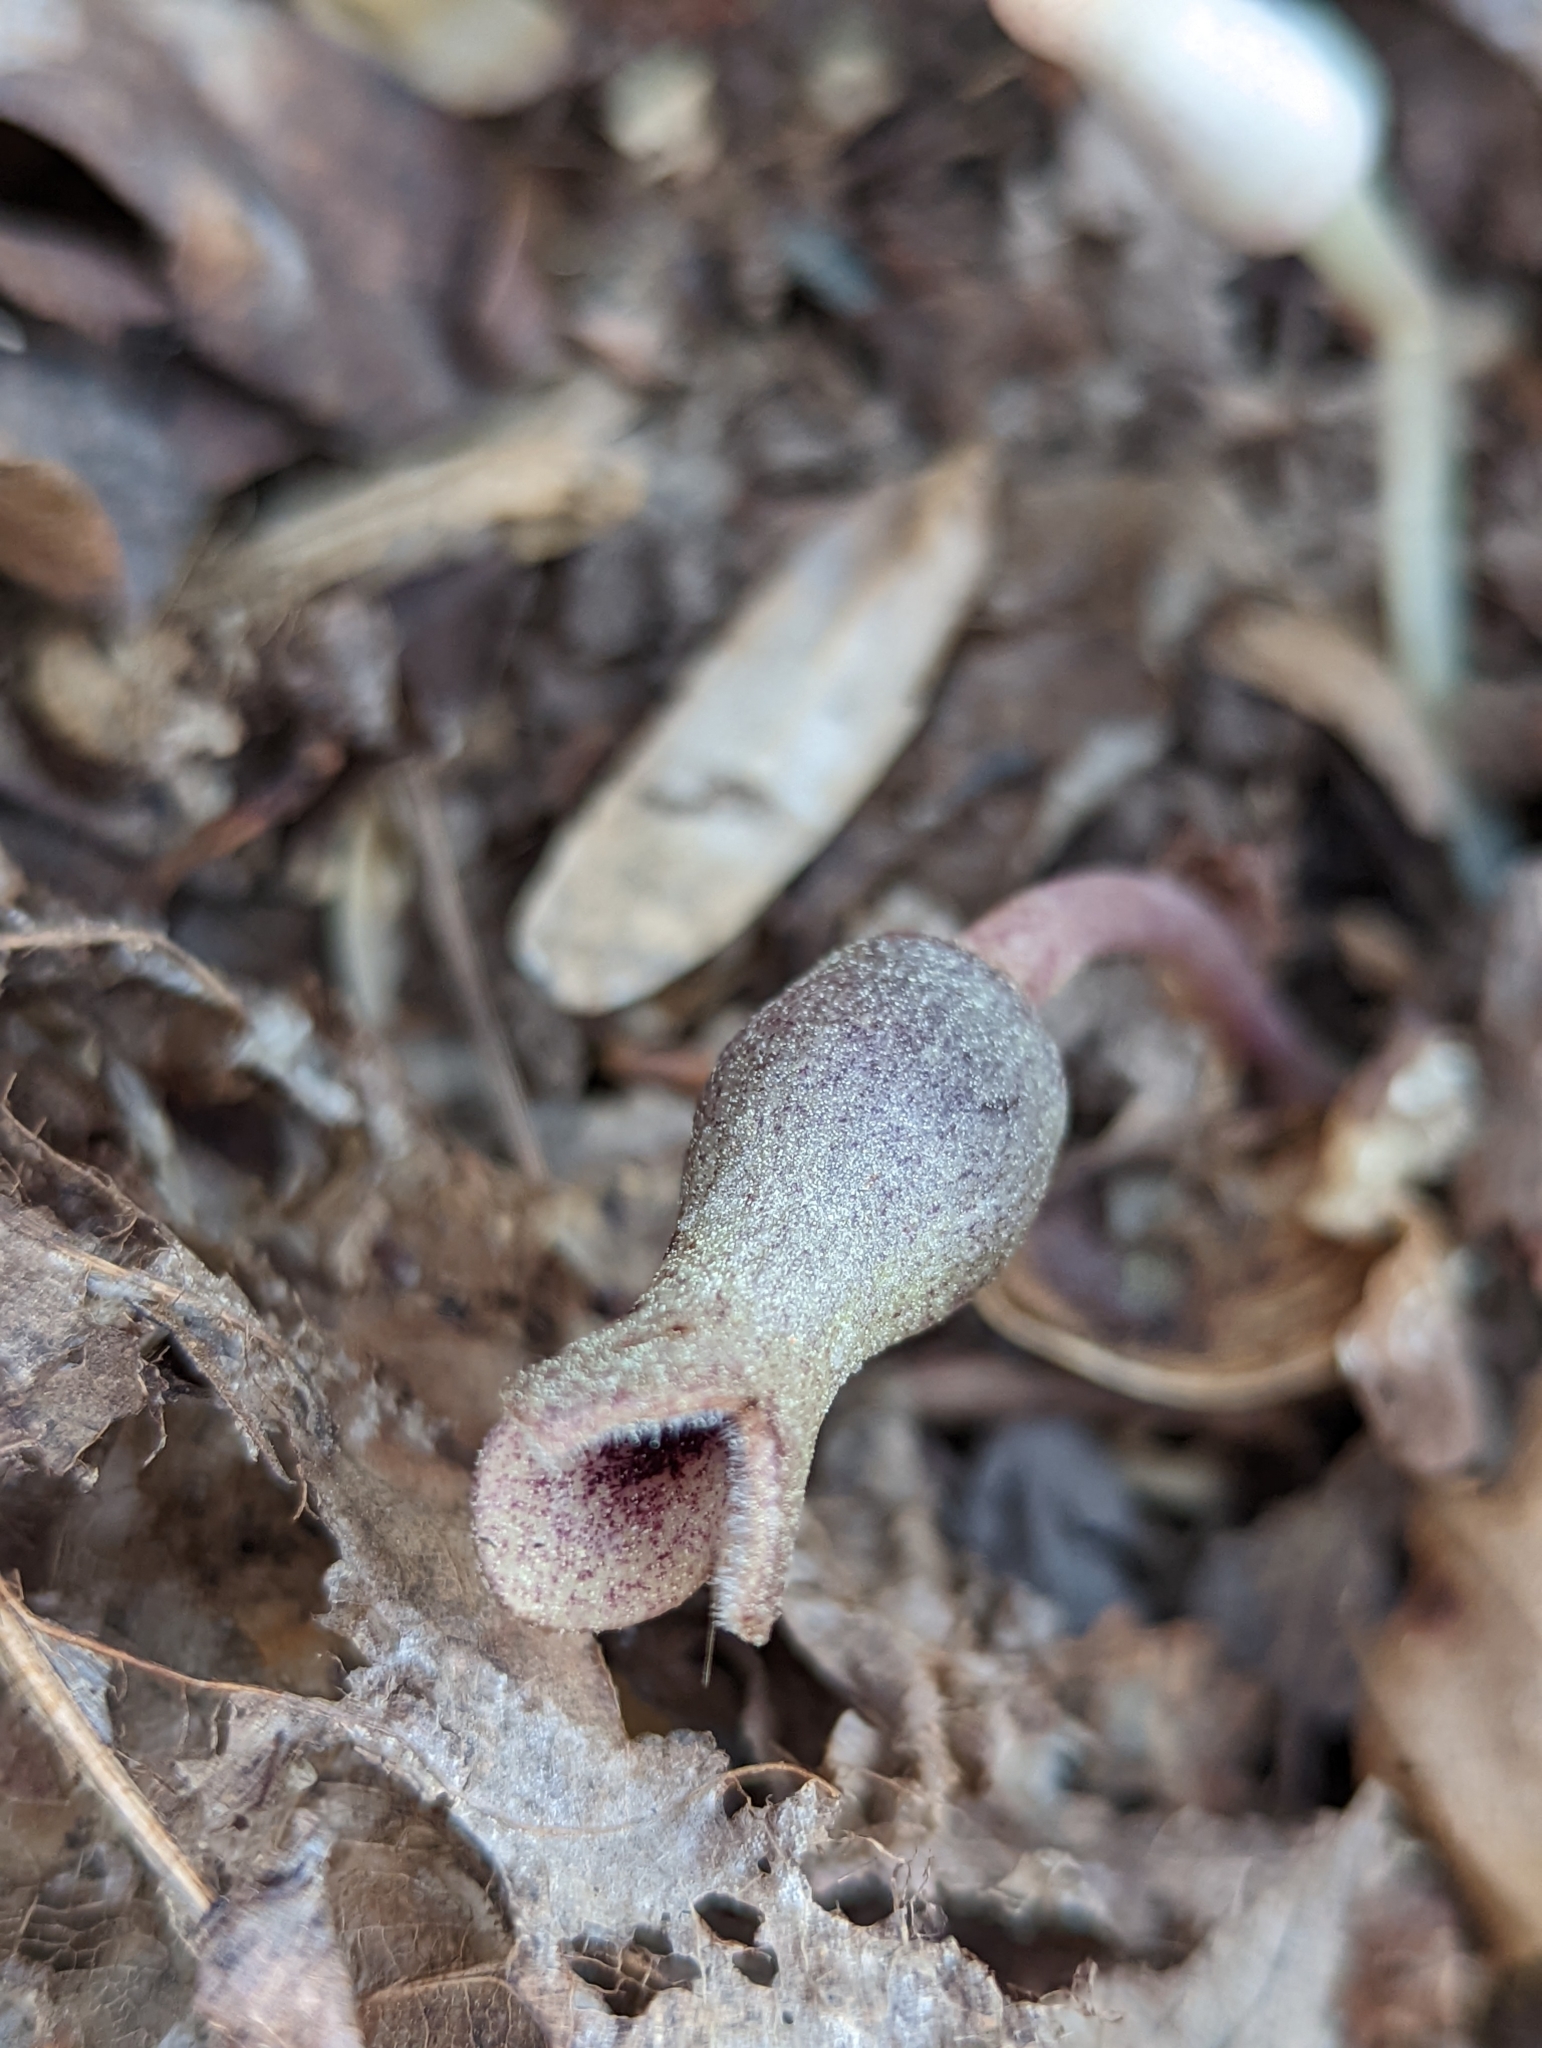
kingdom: Plantae
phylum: Tracheophyta
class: Magnoliopsida
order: Piperales
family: Aristolochiaceae
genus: Hexastylis
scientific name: Hexastylis arifolia
